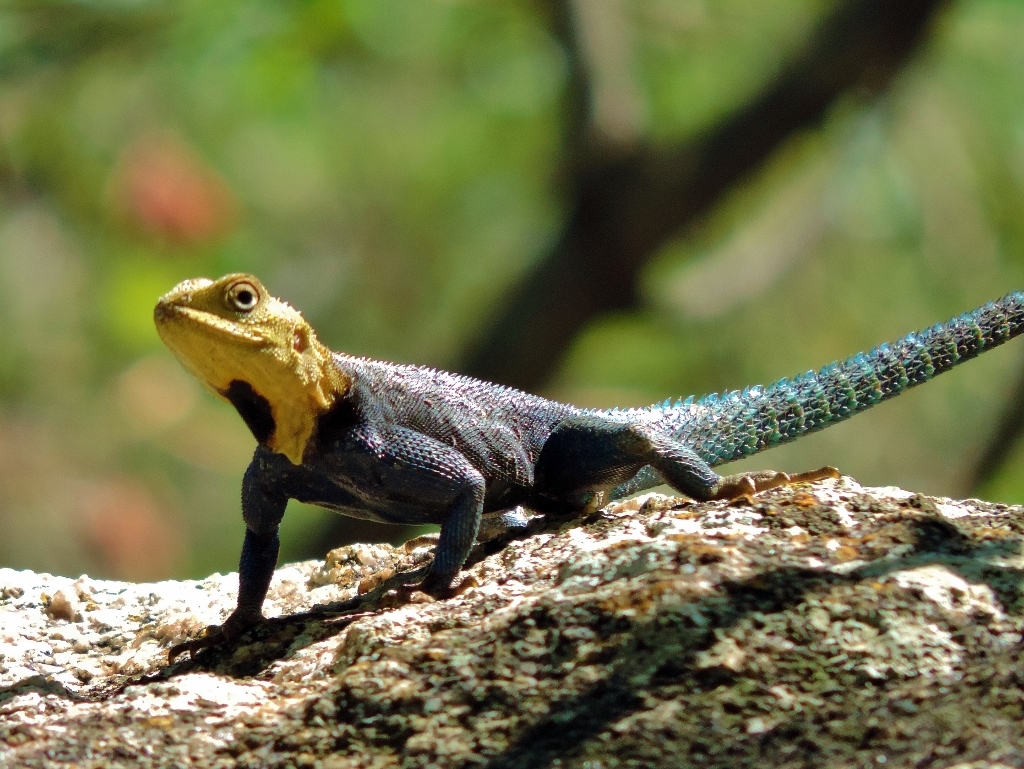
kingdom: Animalia
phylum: Chordata
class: Squamata
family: Agamidae
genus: Agama
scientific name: Agama kirkii
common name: Kirk's rock agama
